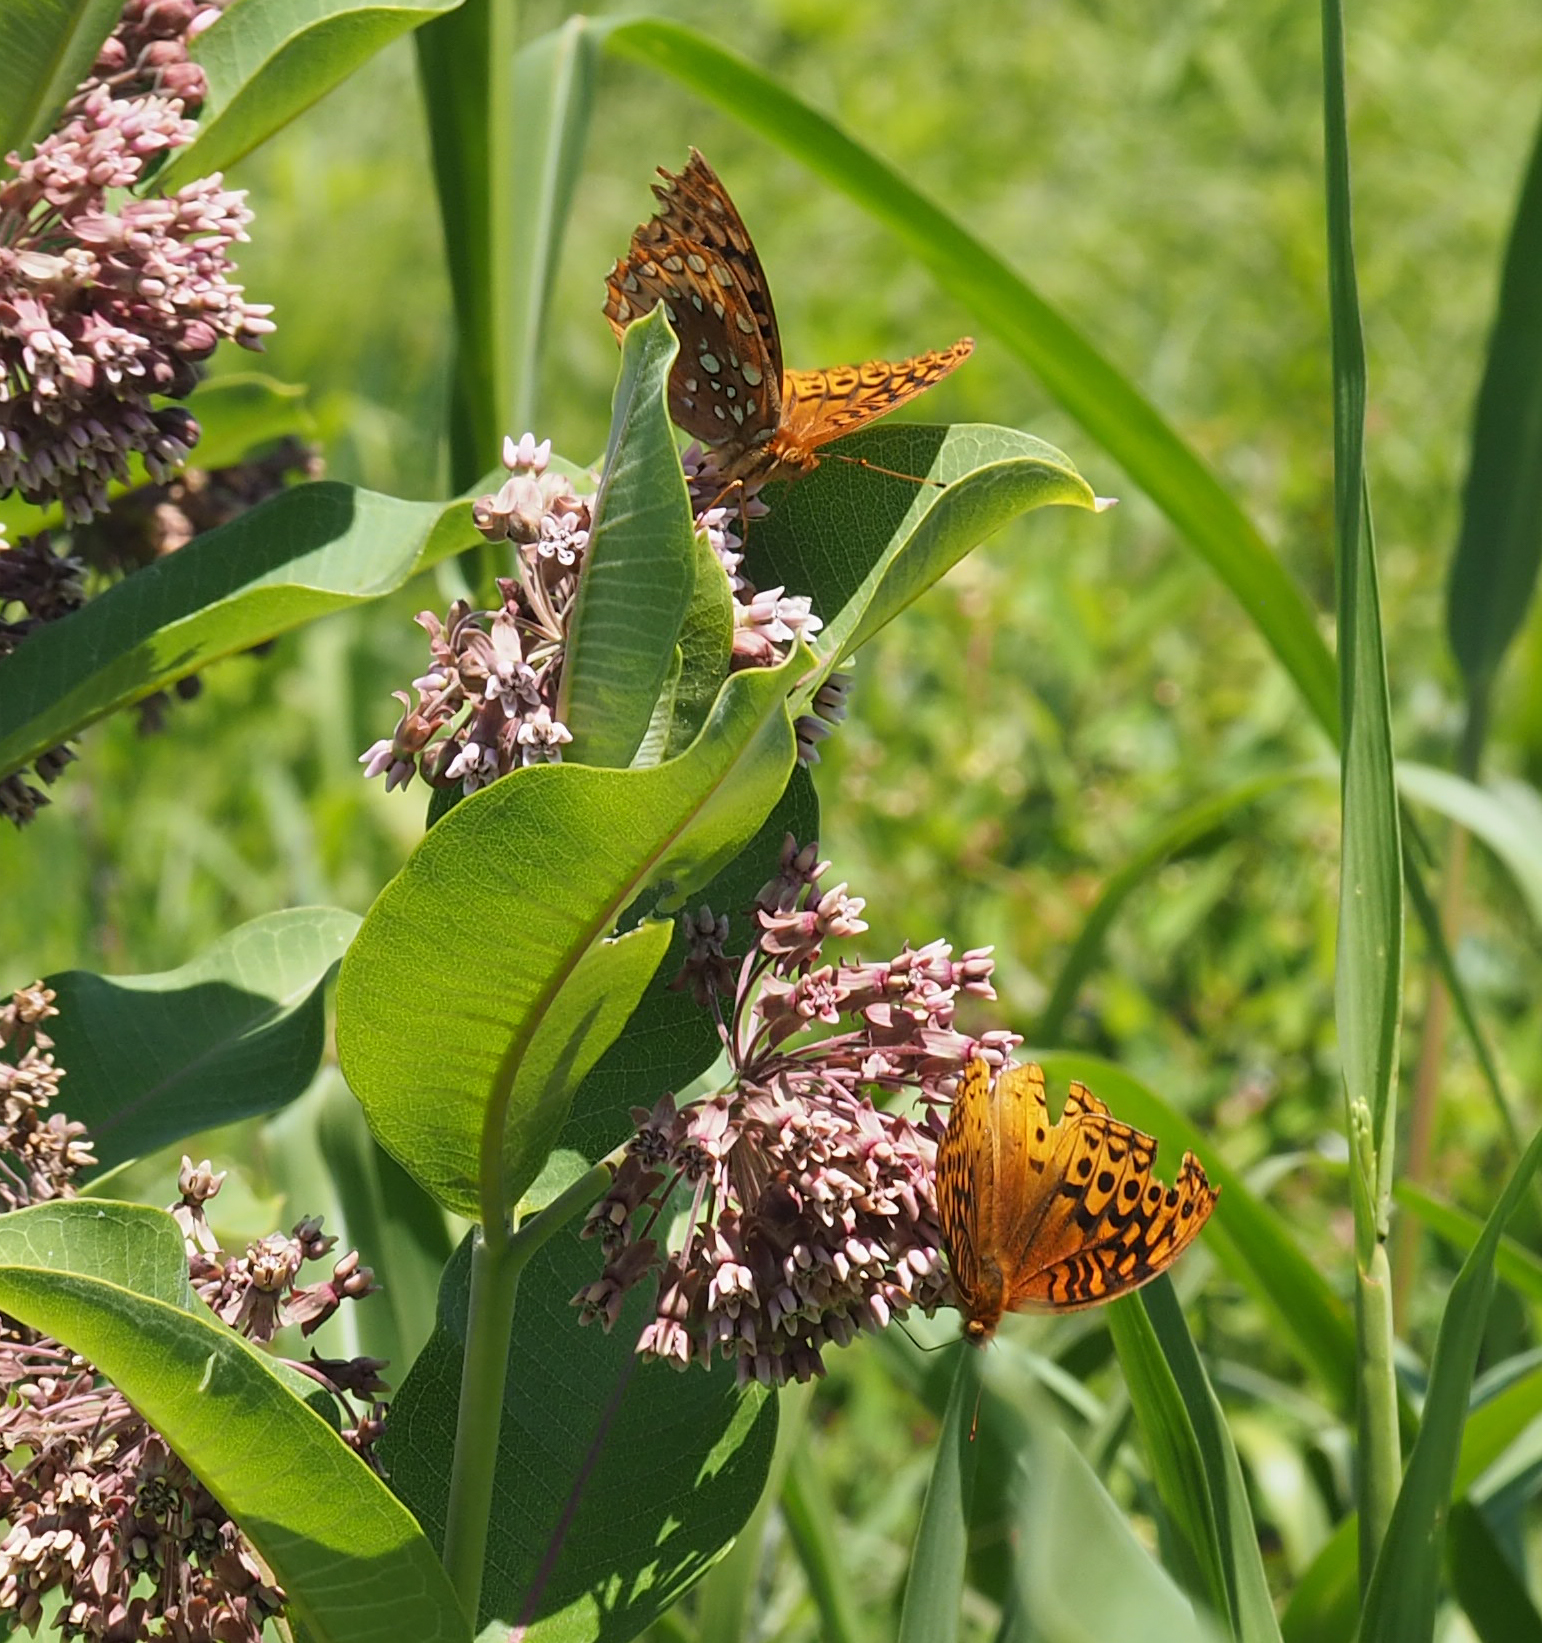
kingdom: Animalia
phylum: Arthropoda
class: Insecta
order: Lepidoptera
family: Nymphalidae
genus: Speyeria
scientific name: Speyeria cybele
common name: Great spangled fritillary
